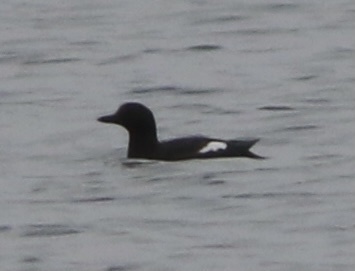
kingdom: Animalia
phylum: Chordata
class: Aves
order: Charadriiformes
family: Alcidae
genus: Cepphus
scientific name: Cepphus columba
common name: Pigeon guillemot
